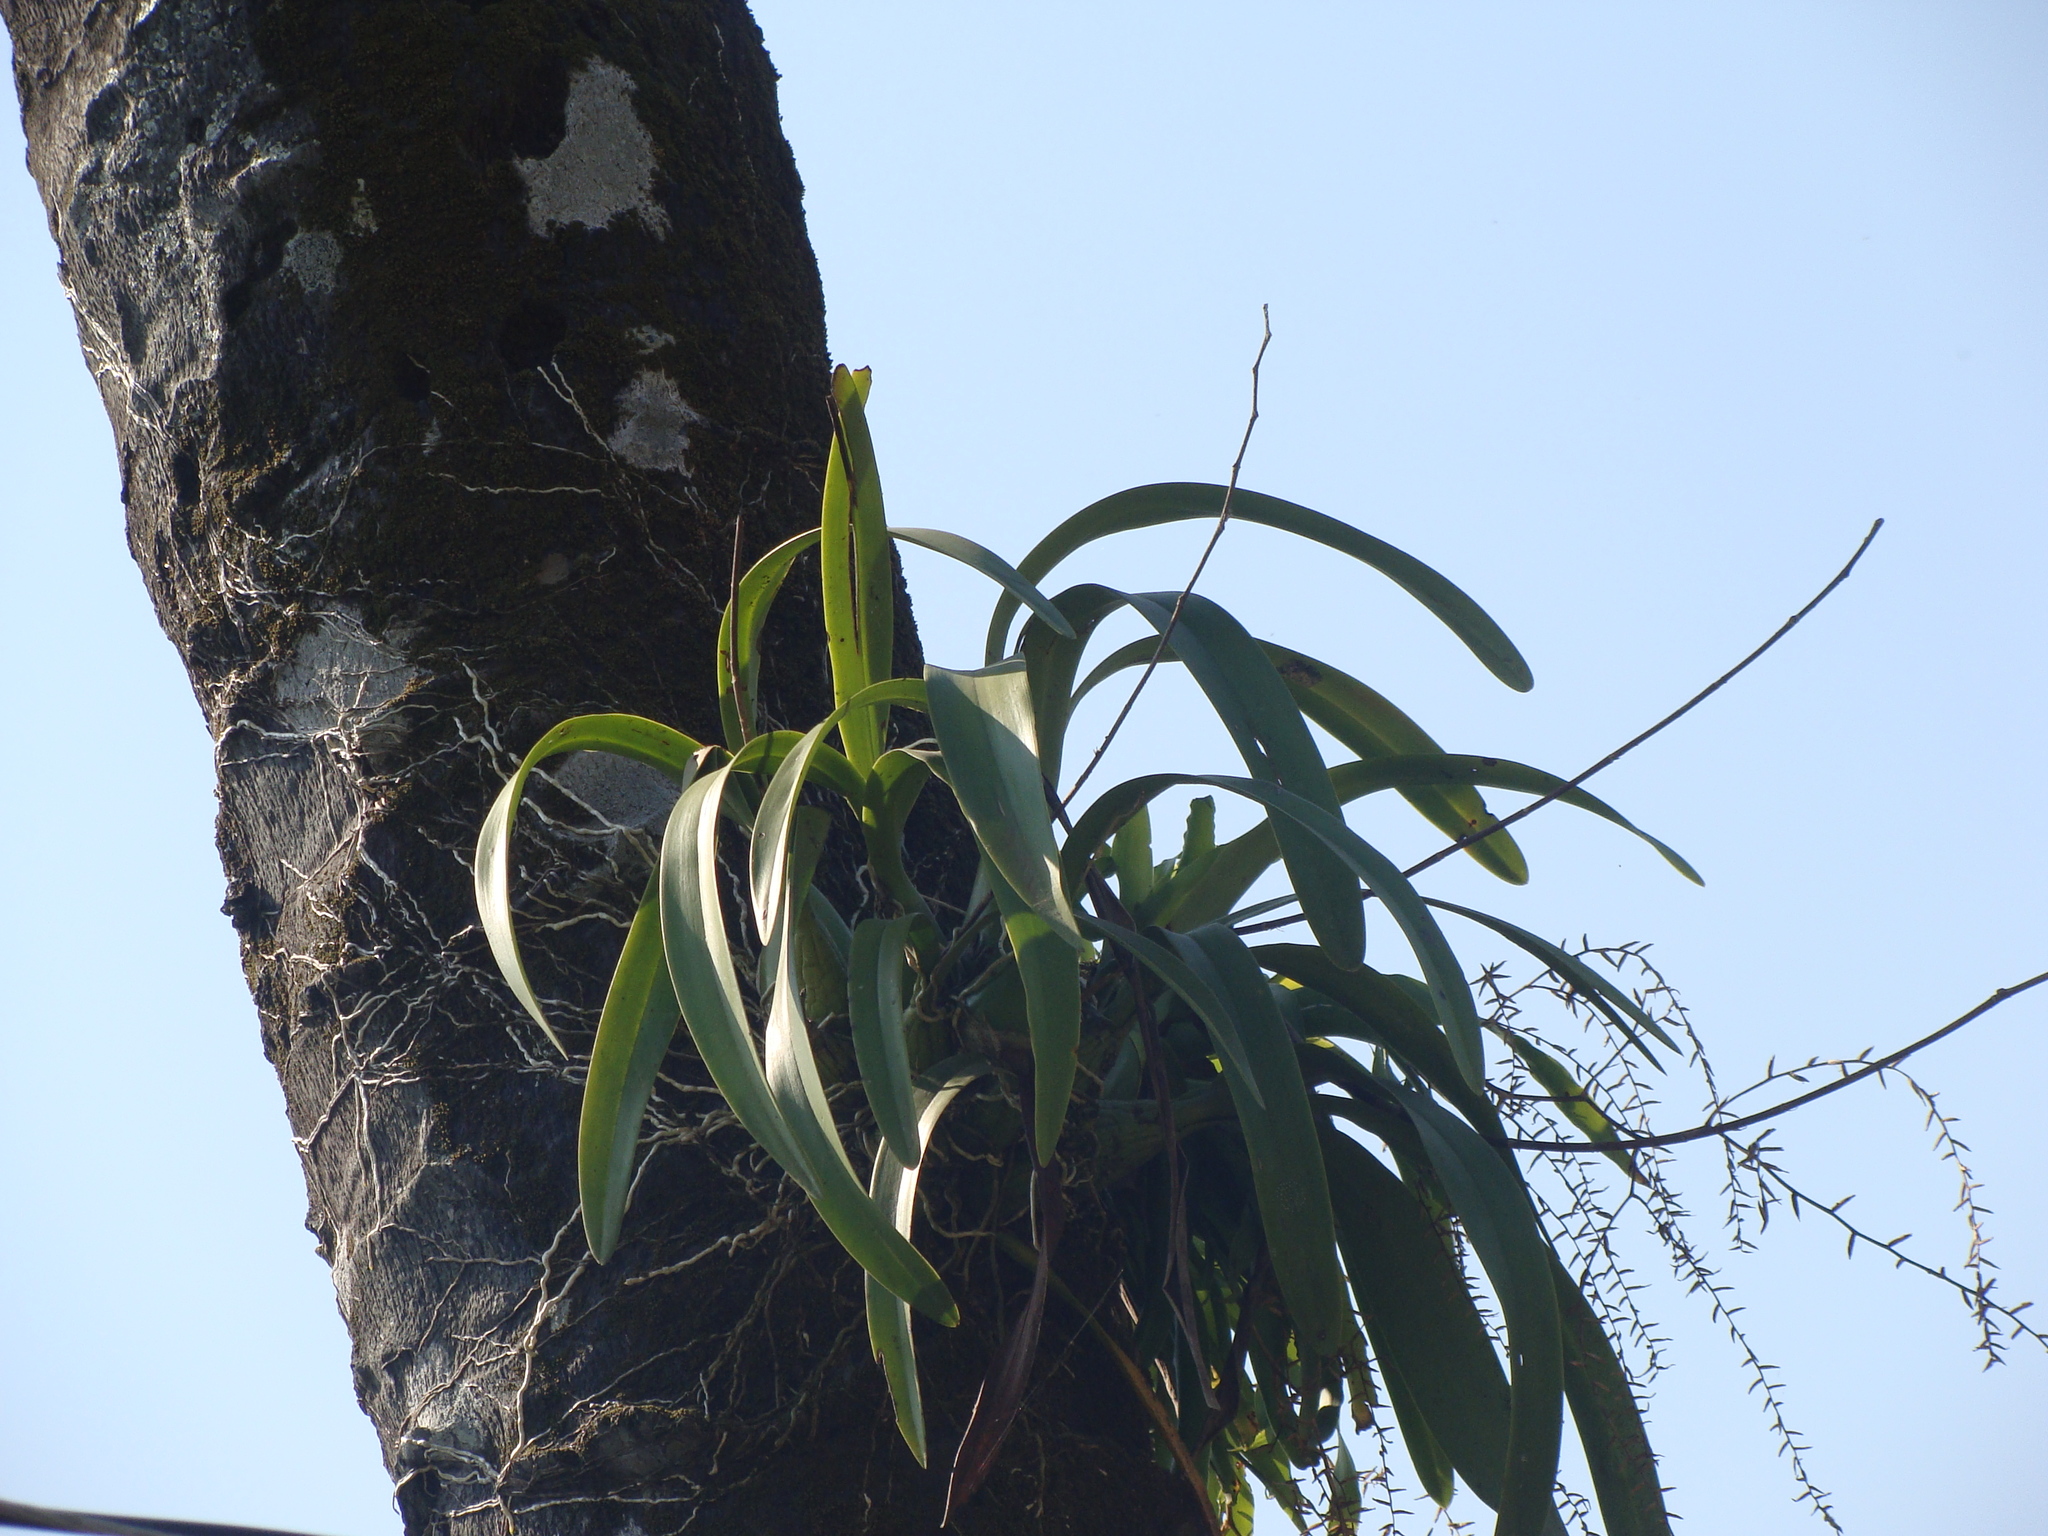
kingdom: Plantae
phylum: Tracheophyta
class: Liliopsida
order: Asparagales
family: Orchidaceae
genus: Encyclia
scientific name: Encyclia cordigera
